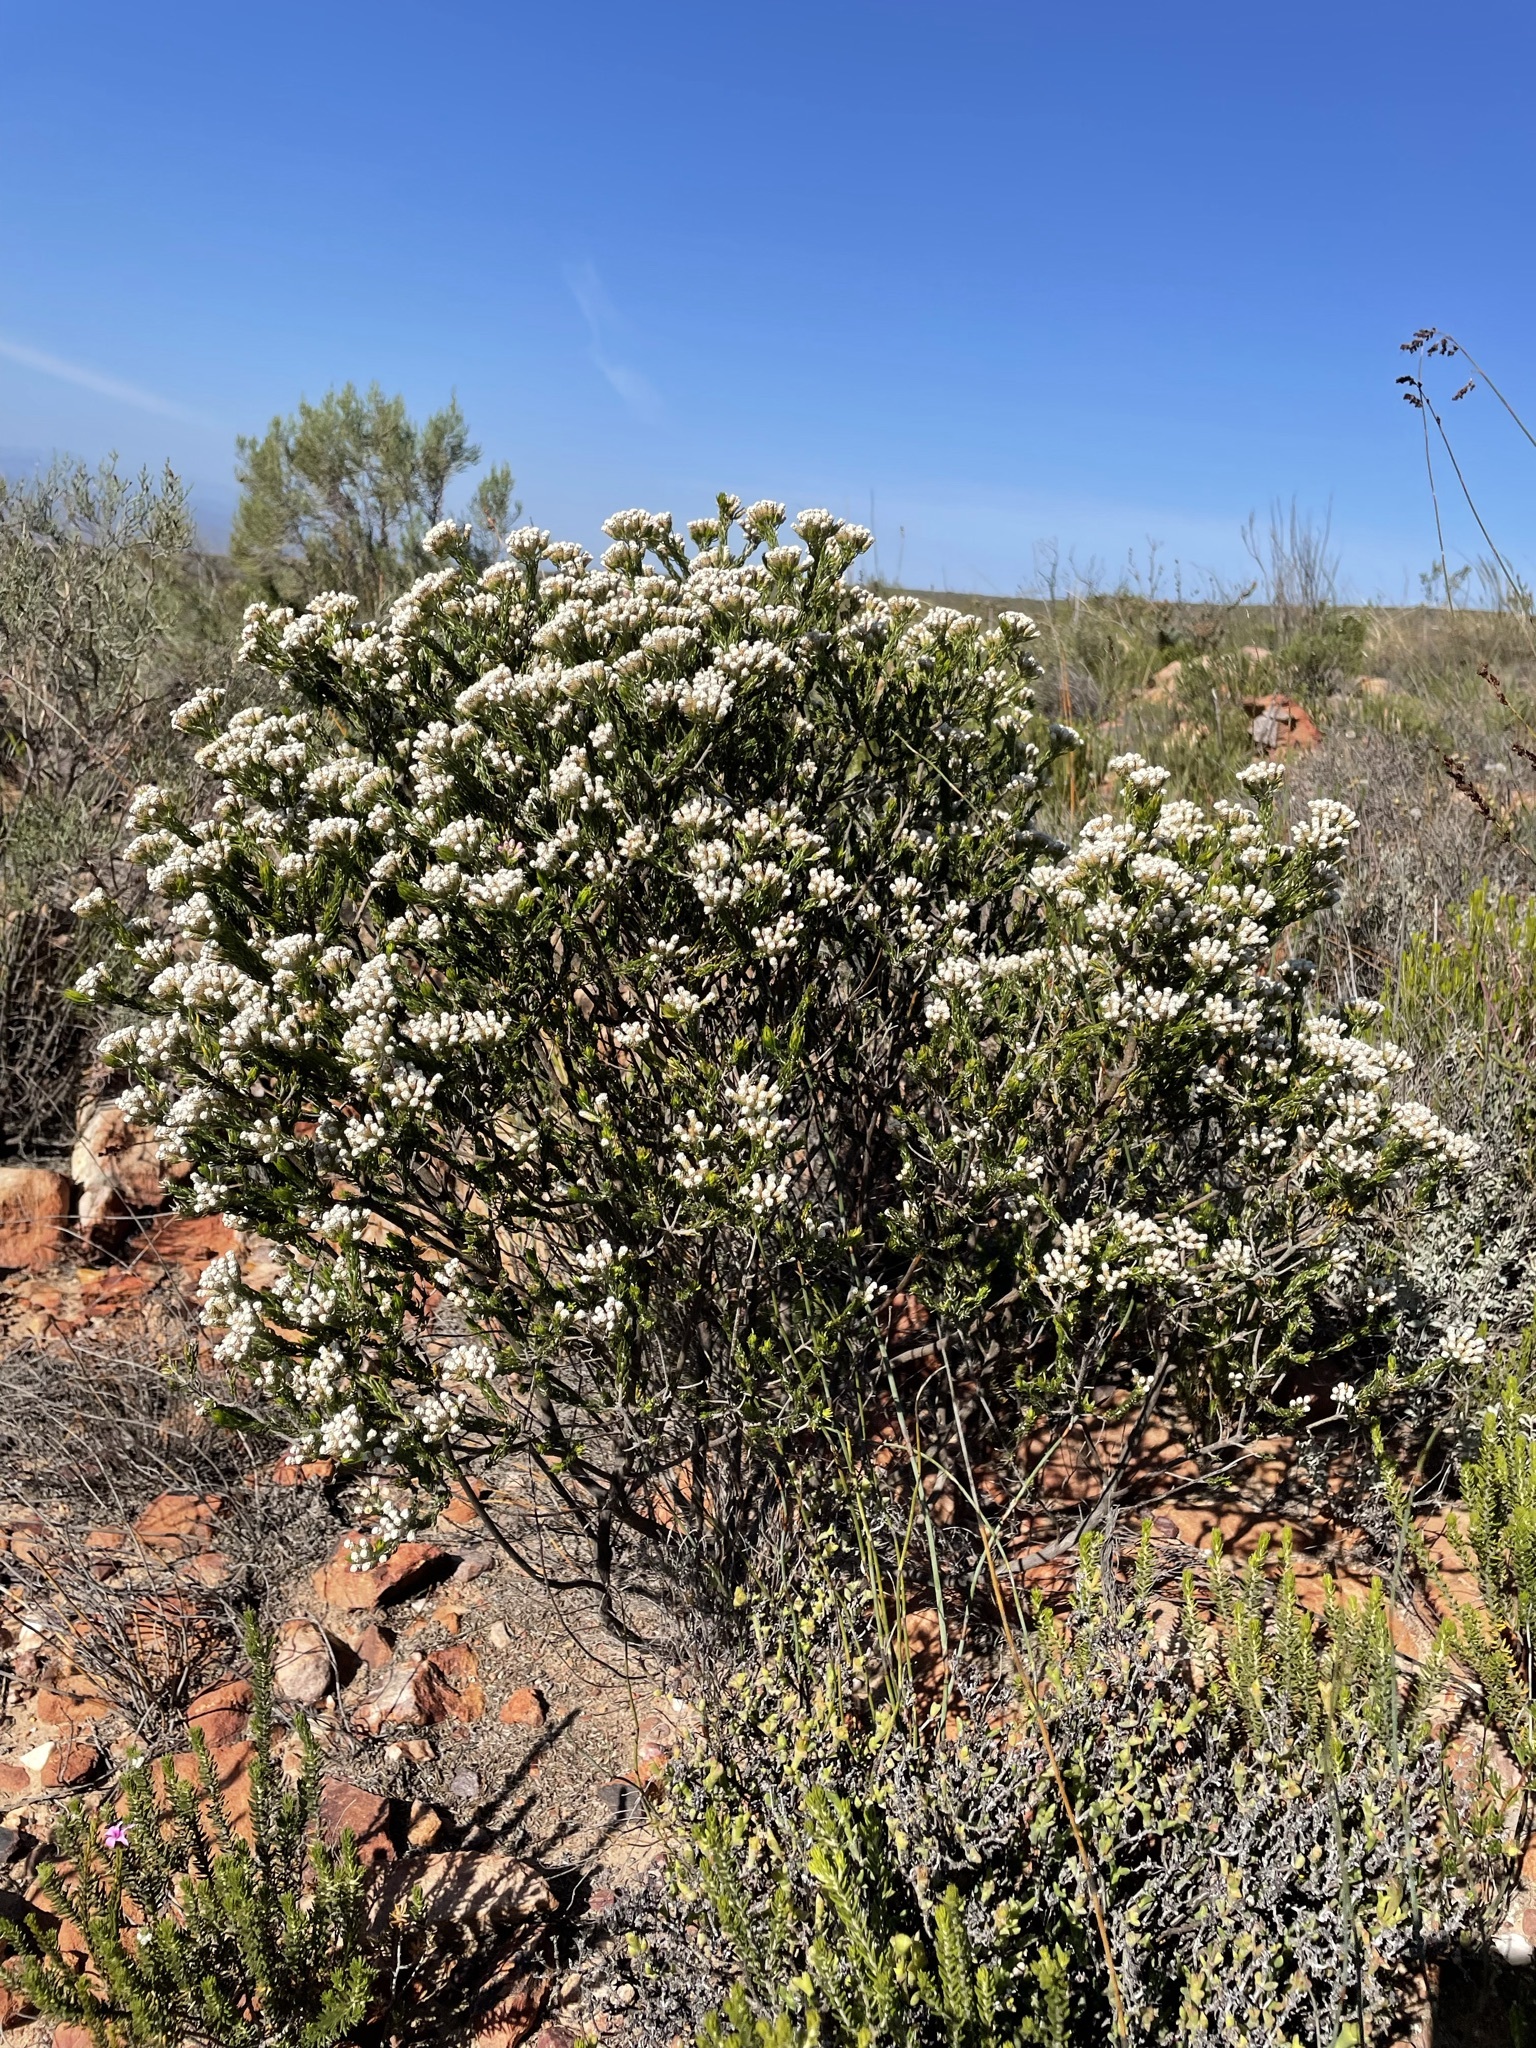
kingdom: Plantae
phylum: Tracheophyta
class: Magnoliopsida
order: Asterales
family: Asteraceae
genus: Metalasia
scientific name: Metalasia pallida
